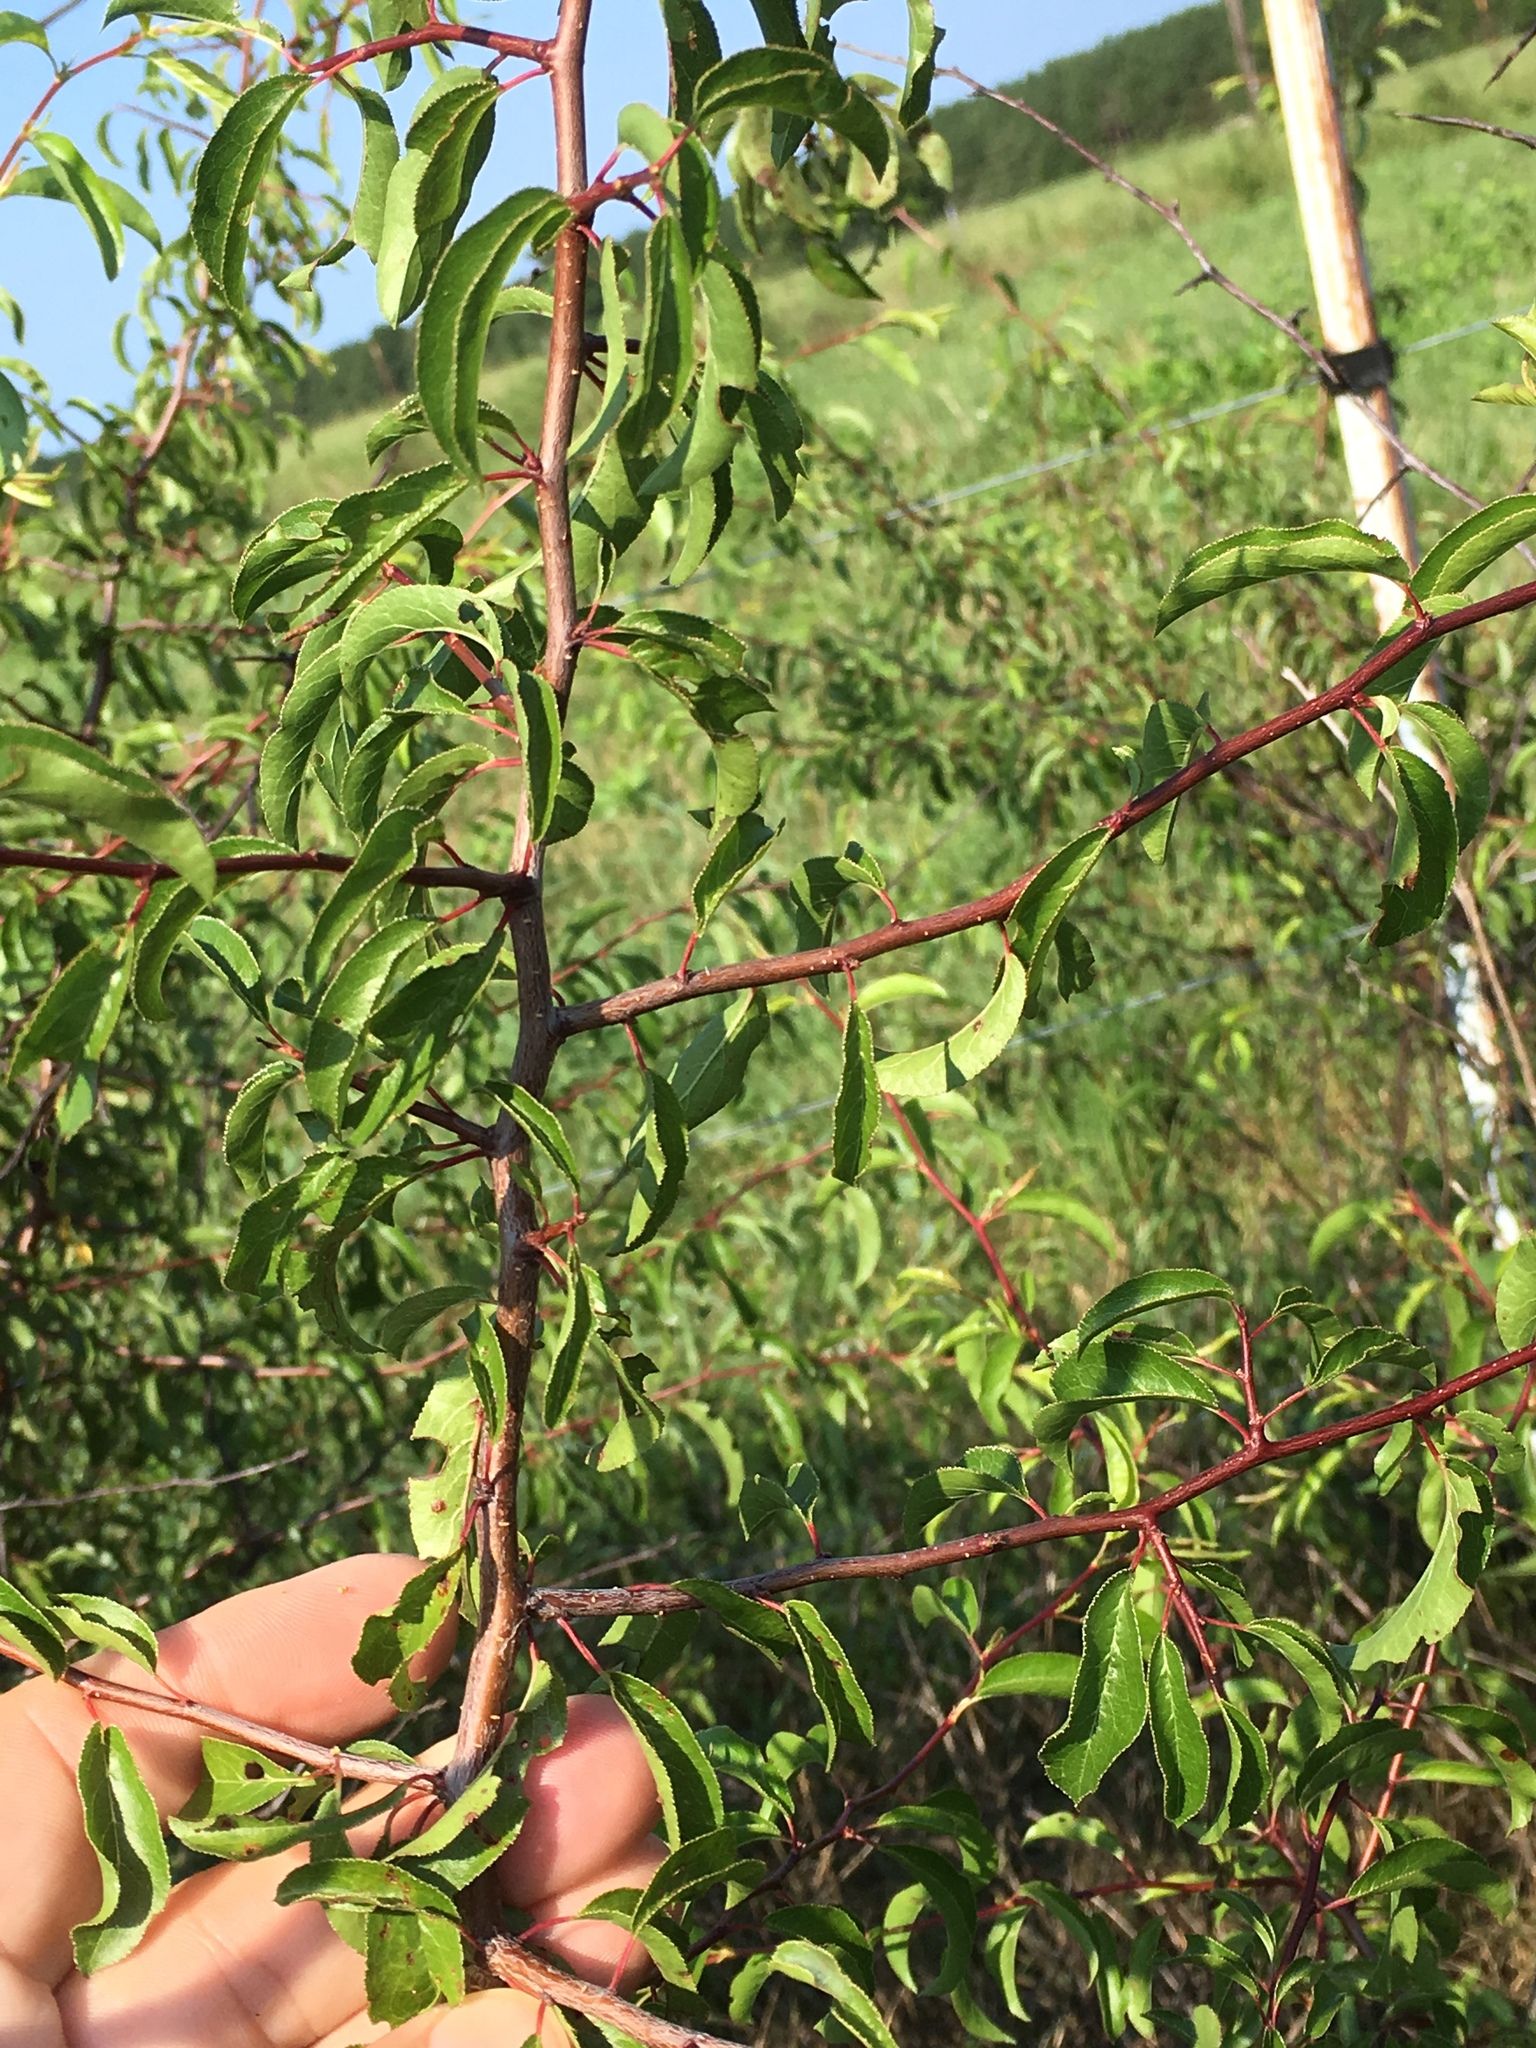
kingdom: Plantae
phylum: Tracheophyta
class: Magnoliopsida
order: Rosales
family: Rosaceae
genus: Prunus
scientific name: Prunus angustifolia
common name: Cherokee plum
